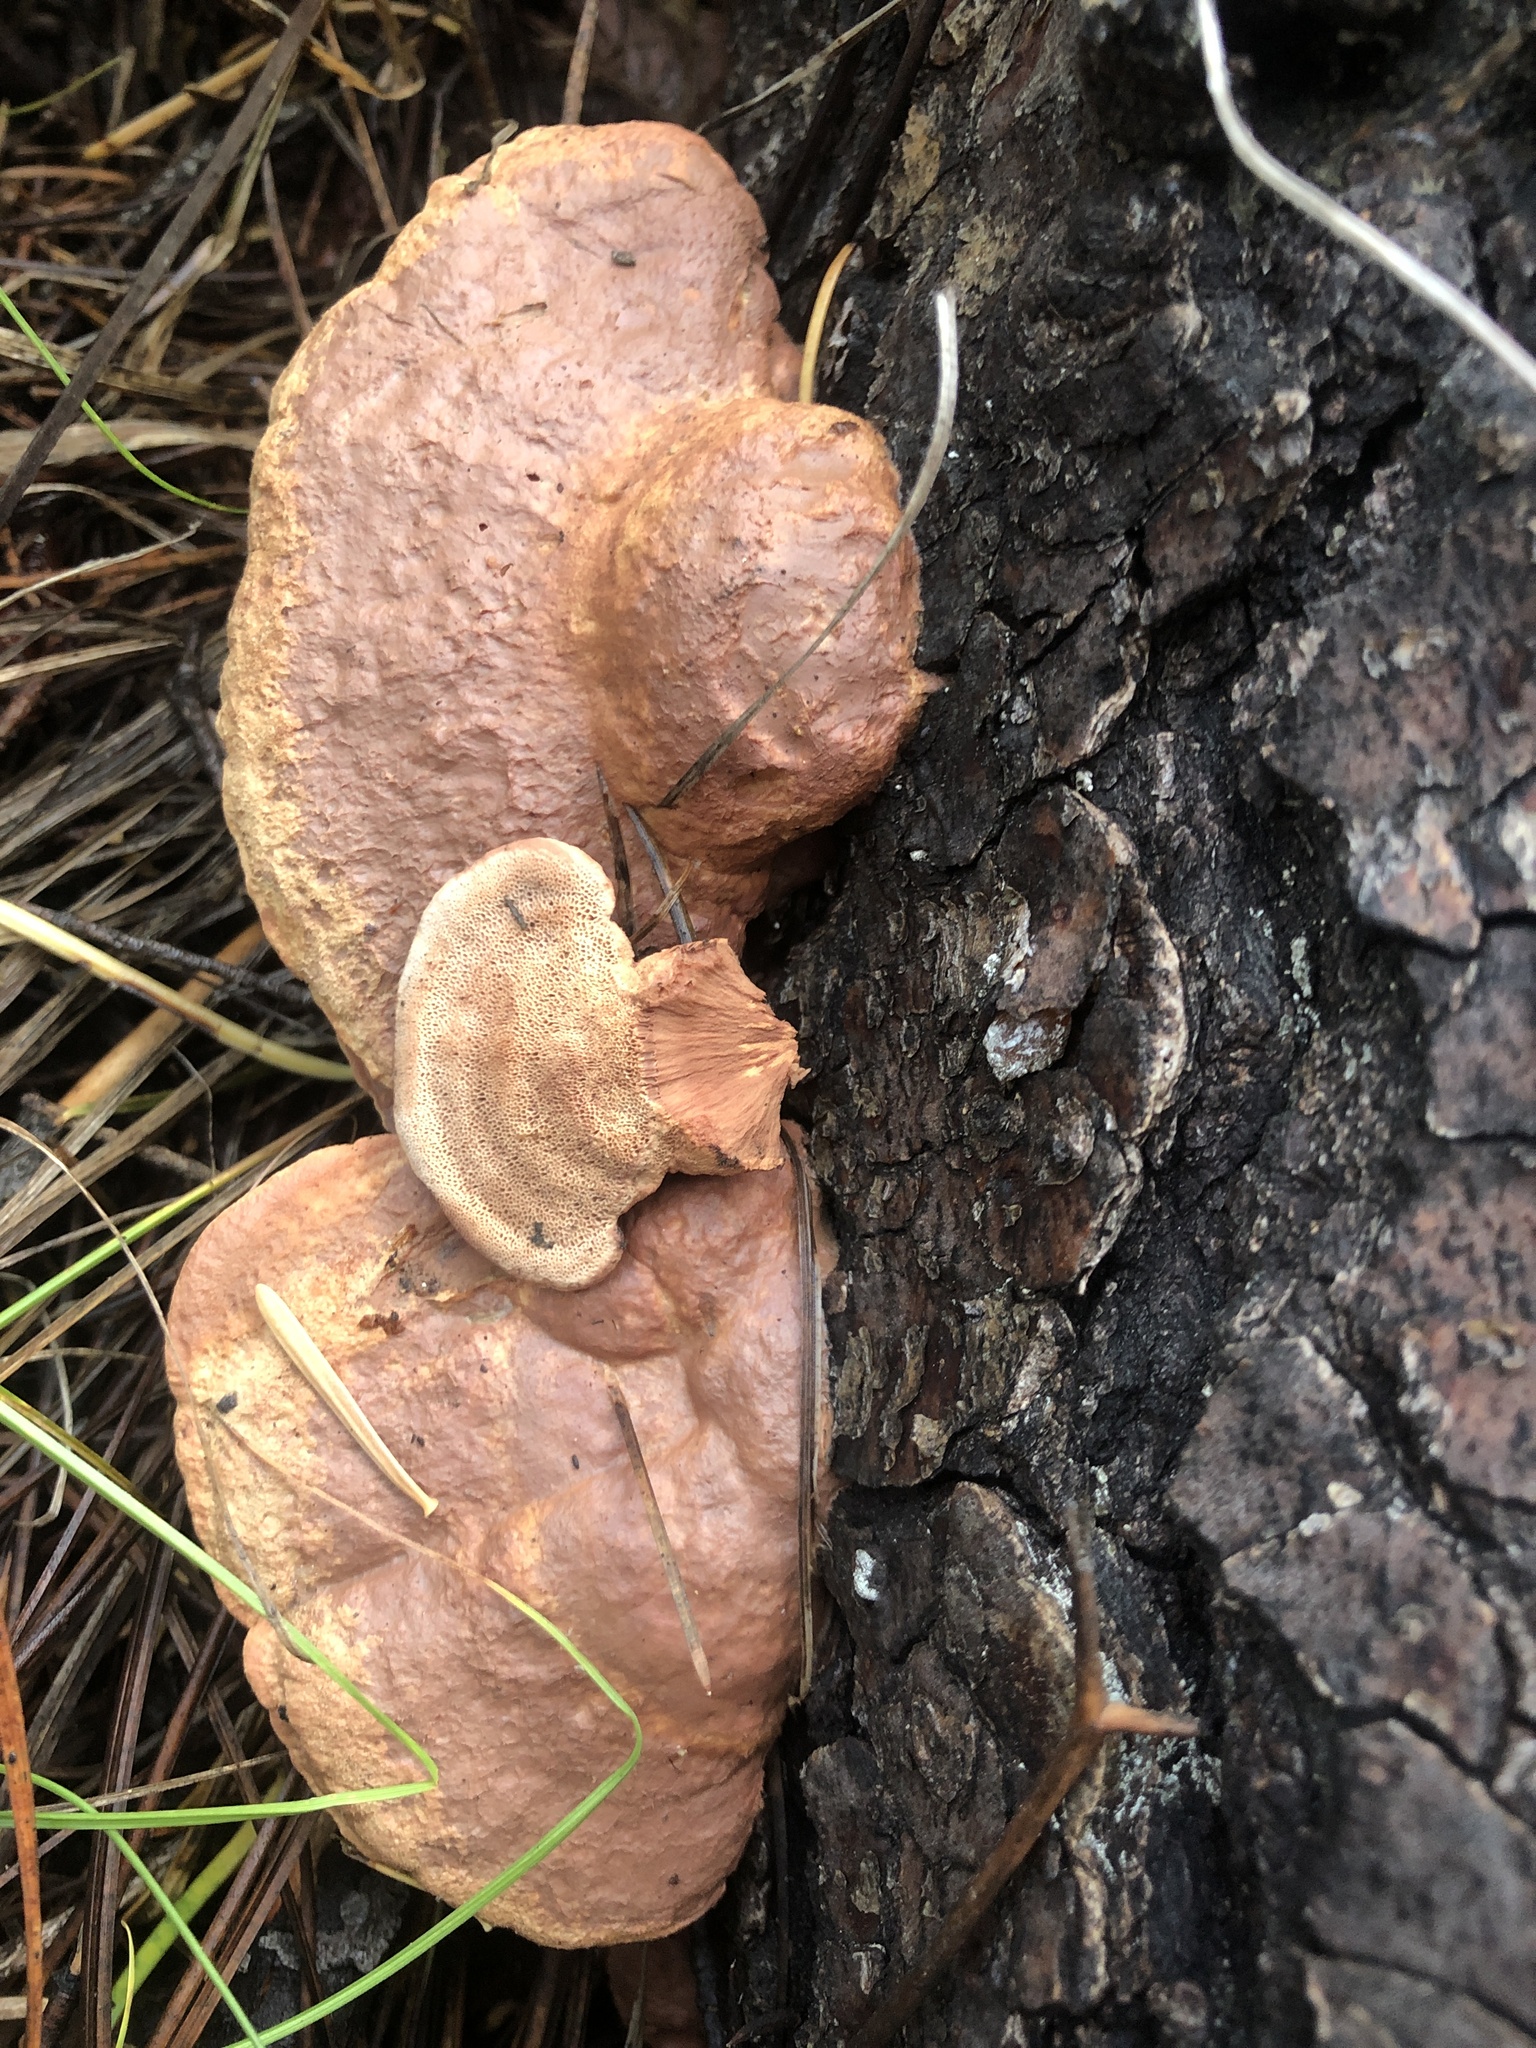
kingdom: Fungi
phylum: Basidiomycota
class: Agaricomycetes
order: Polyporales
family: Phanerochaetaceae
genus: Hapalopilus
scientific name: Hapalopilus rutilans
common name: Tender nesting polypore
